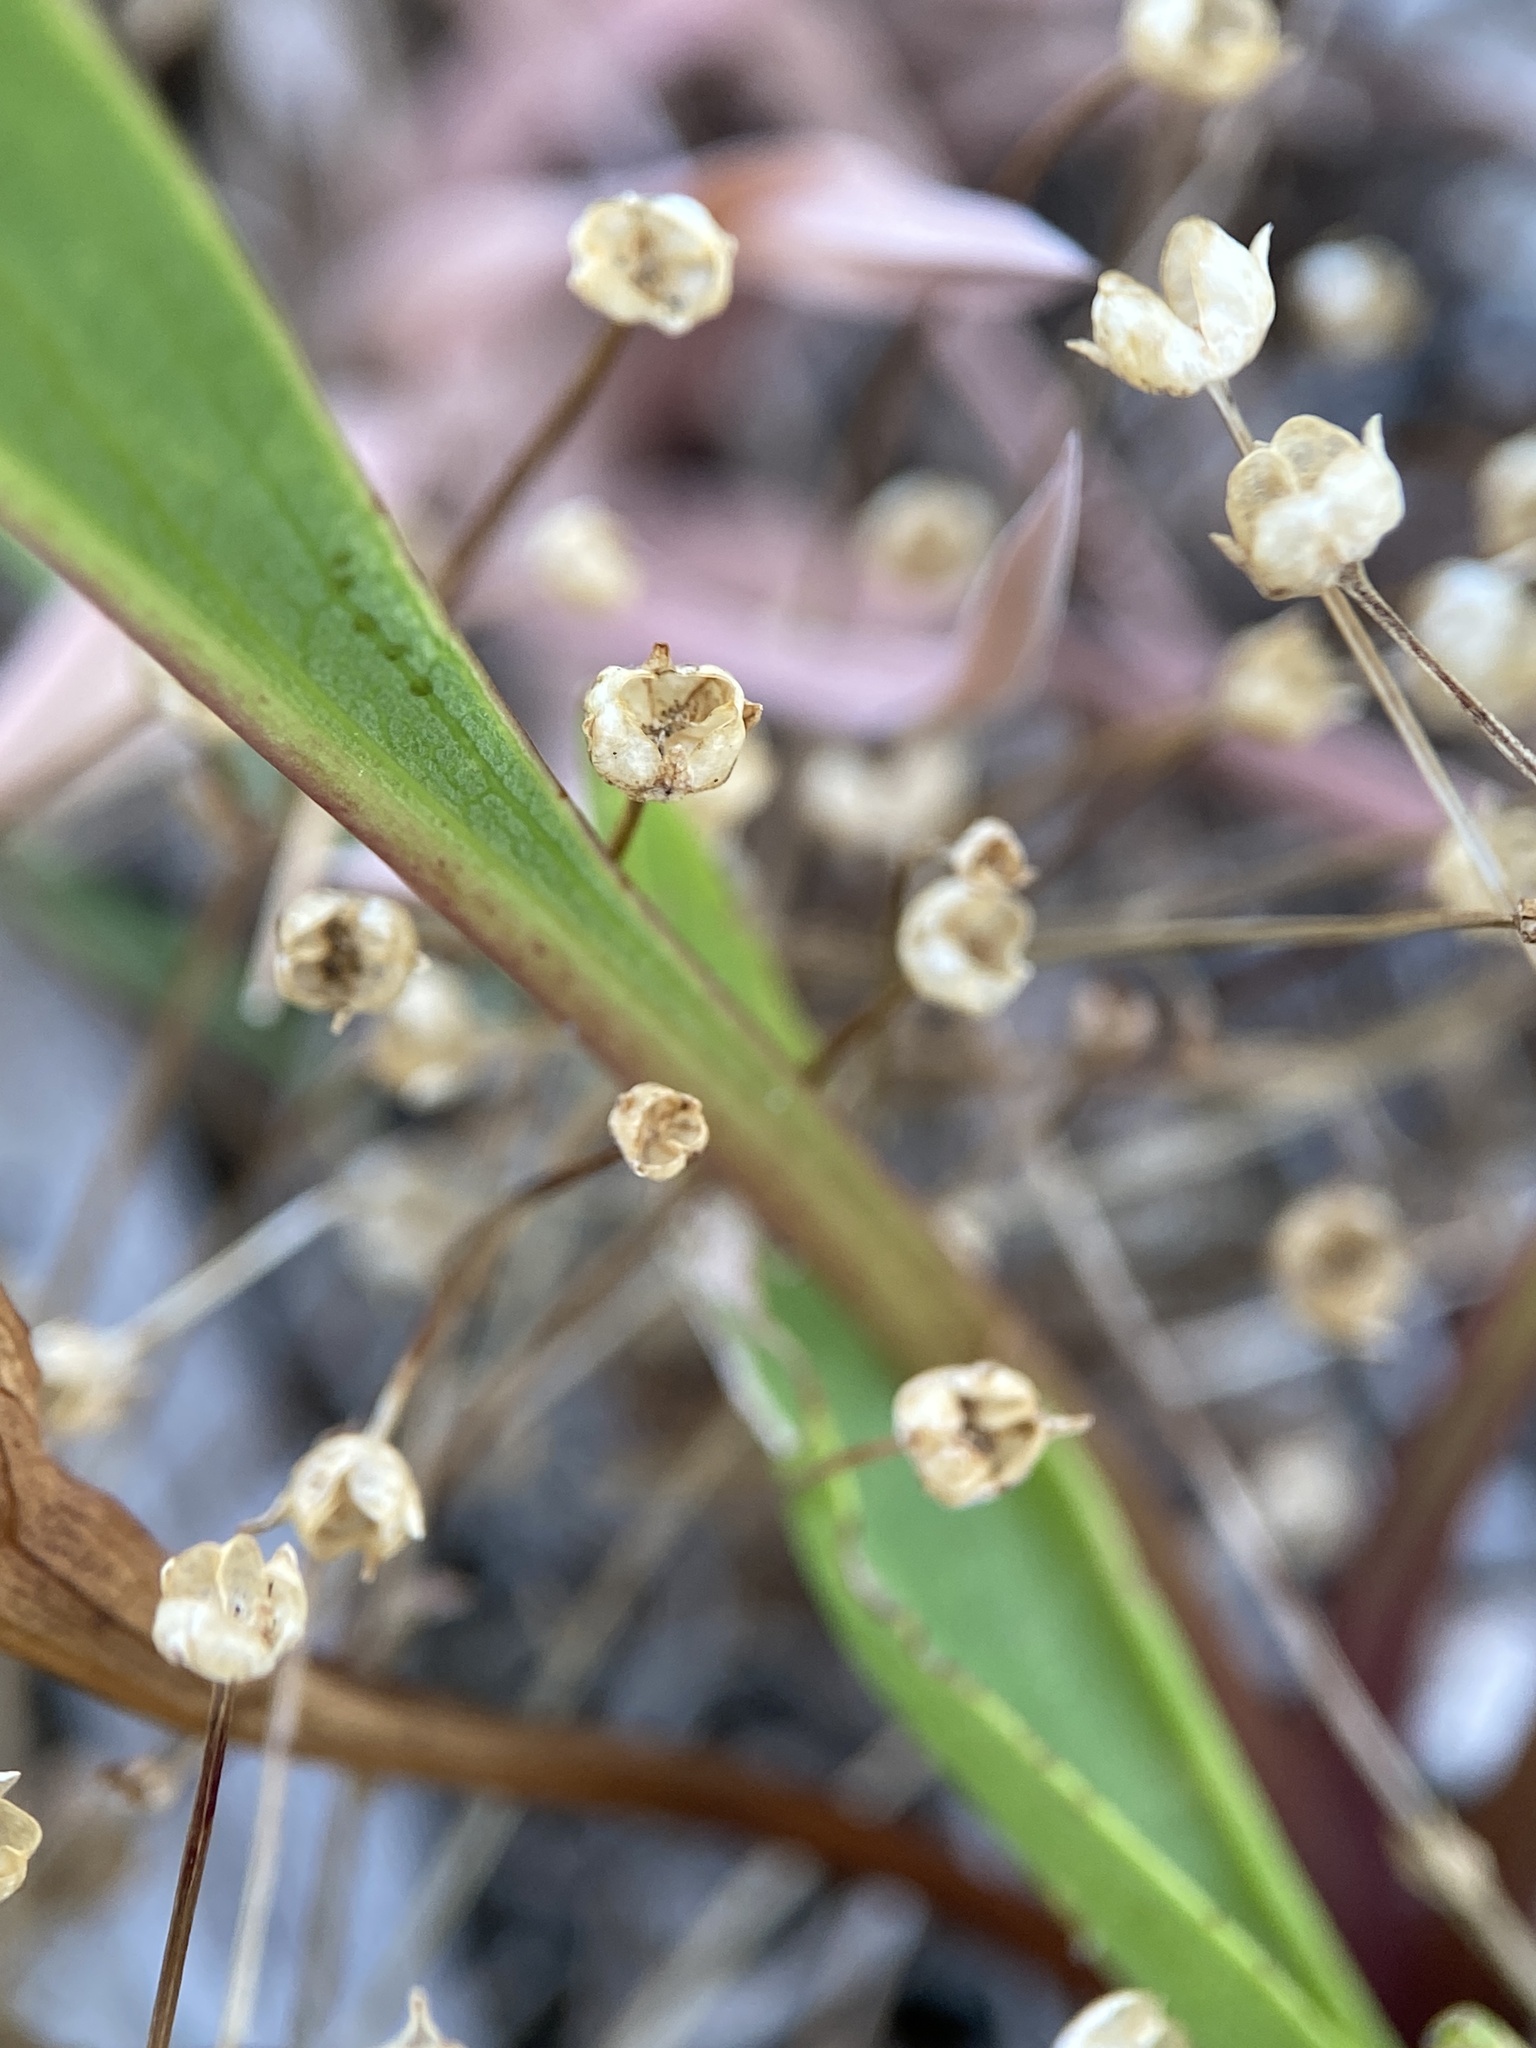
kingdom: Plantae
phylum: Tracheophyta
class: Magnoliopsida
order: Gentianales
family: Rubiaceae
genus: Houstonia
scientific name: Houstonia caerulea
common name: Bluets
